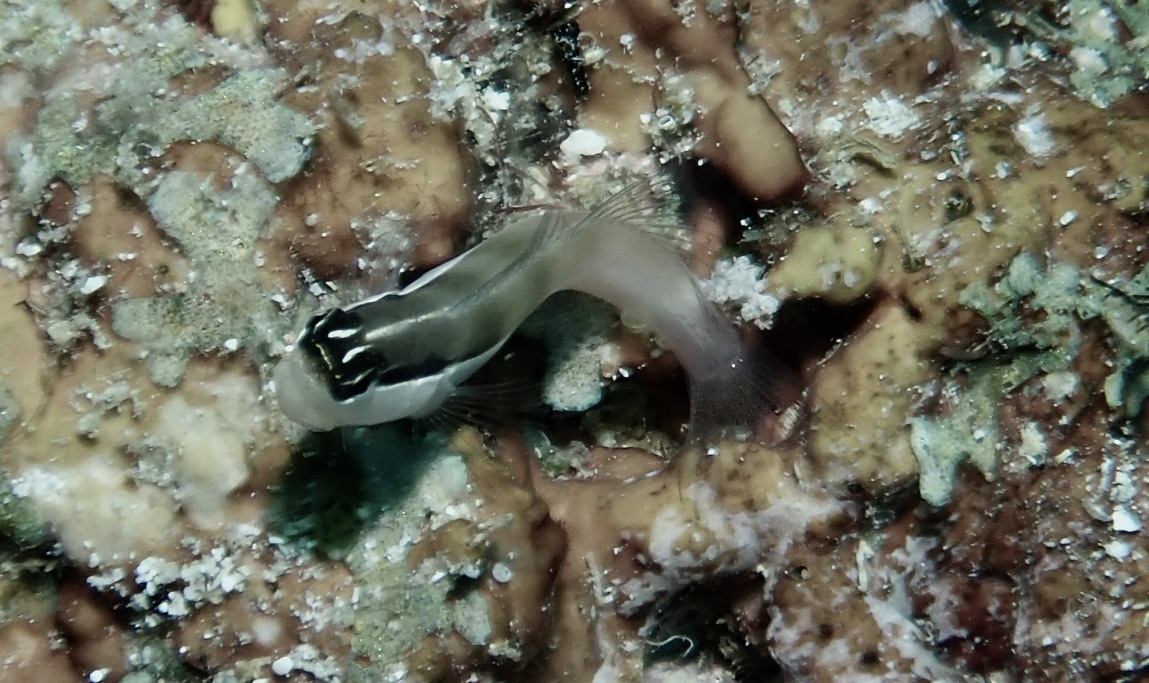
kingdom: Animalia
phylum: Chordata
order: Perciformes
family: Blenniidae
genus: Ecsenius
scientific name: Ecsenius bandanus
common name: Banda clown blenny
